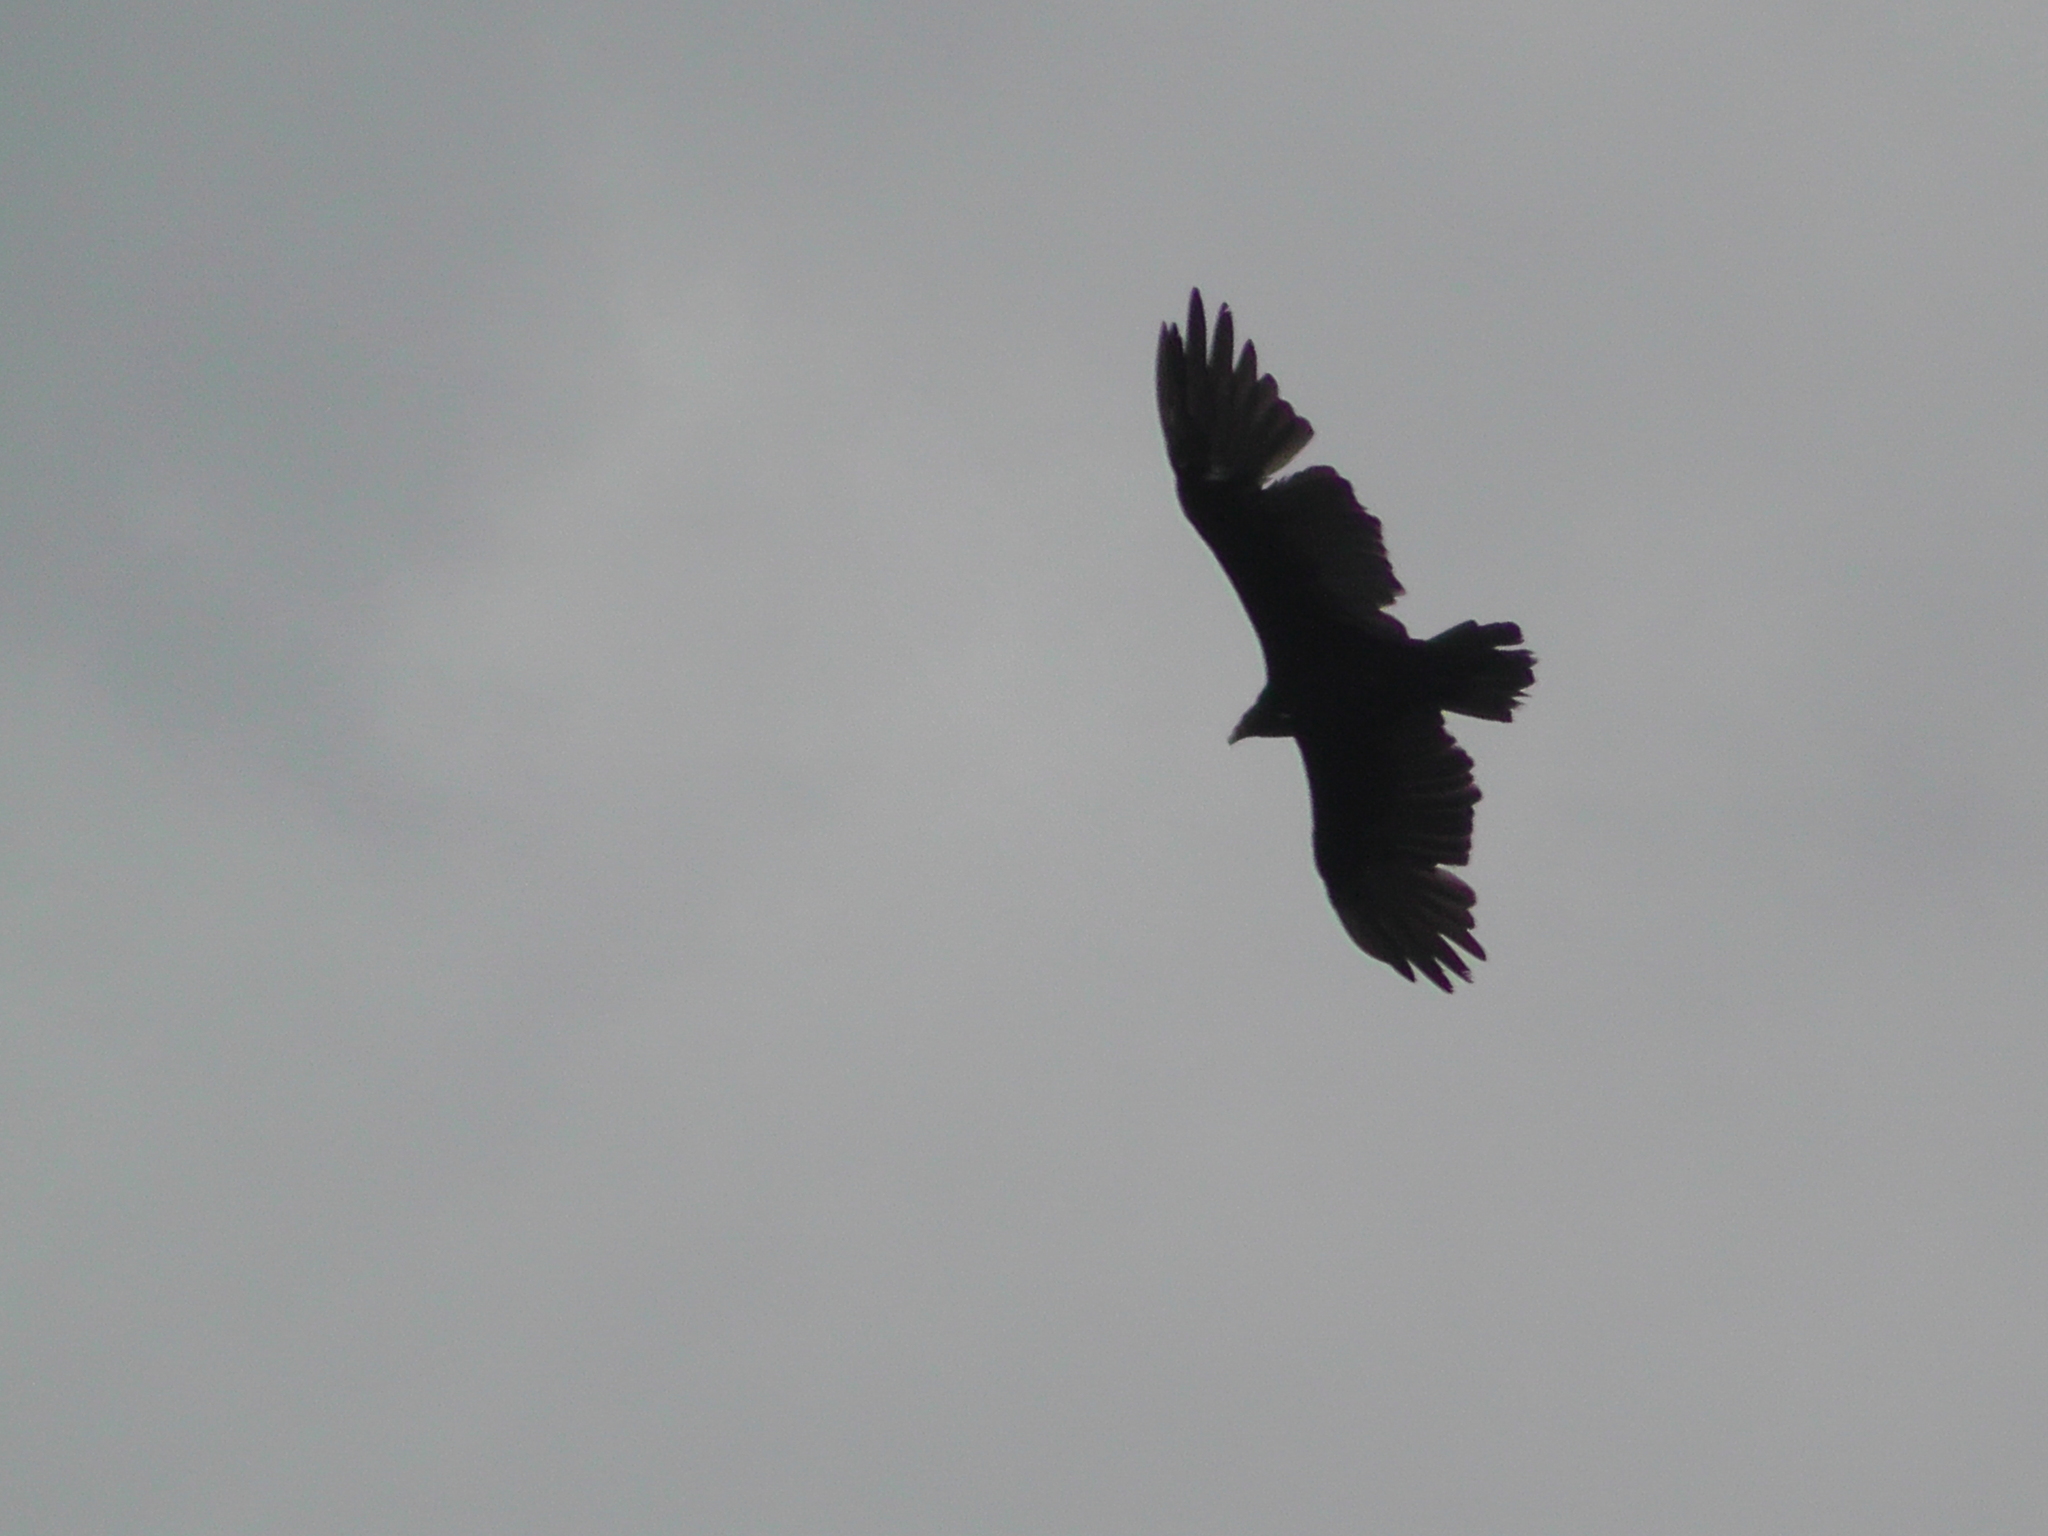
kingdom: Animalia
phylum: Chordata
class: Aves
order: Accipitriformes
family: Cathartidae
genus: Cathartes
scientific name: Cathartes aura
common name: Turkey vulture
